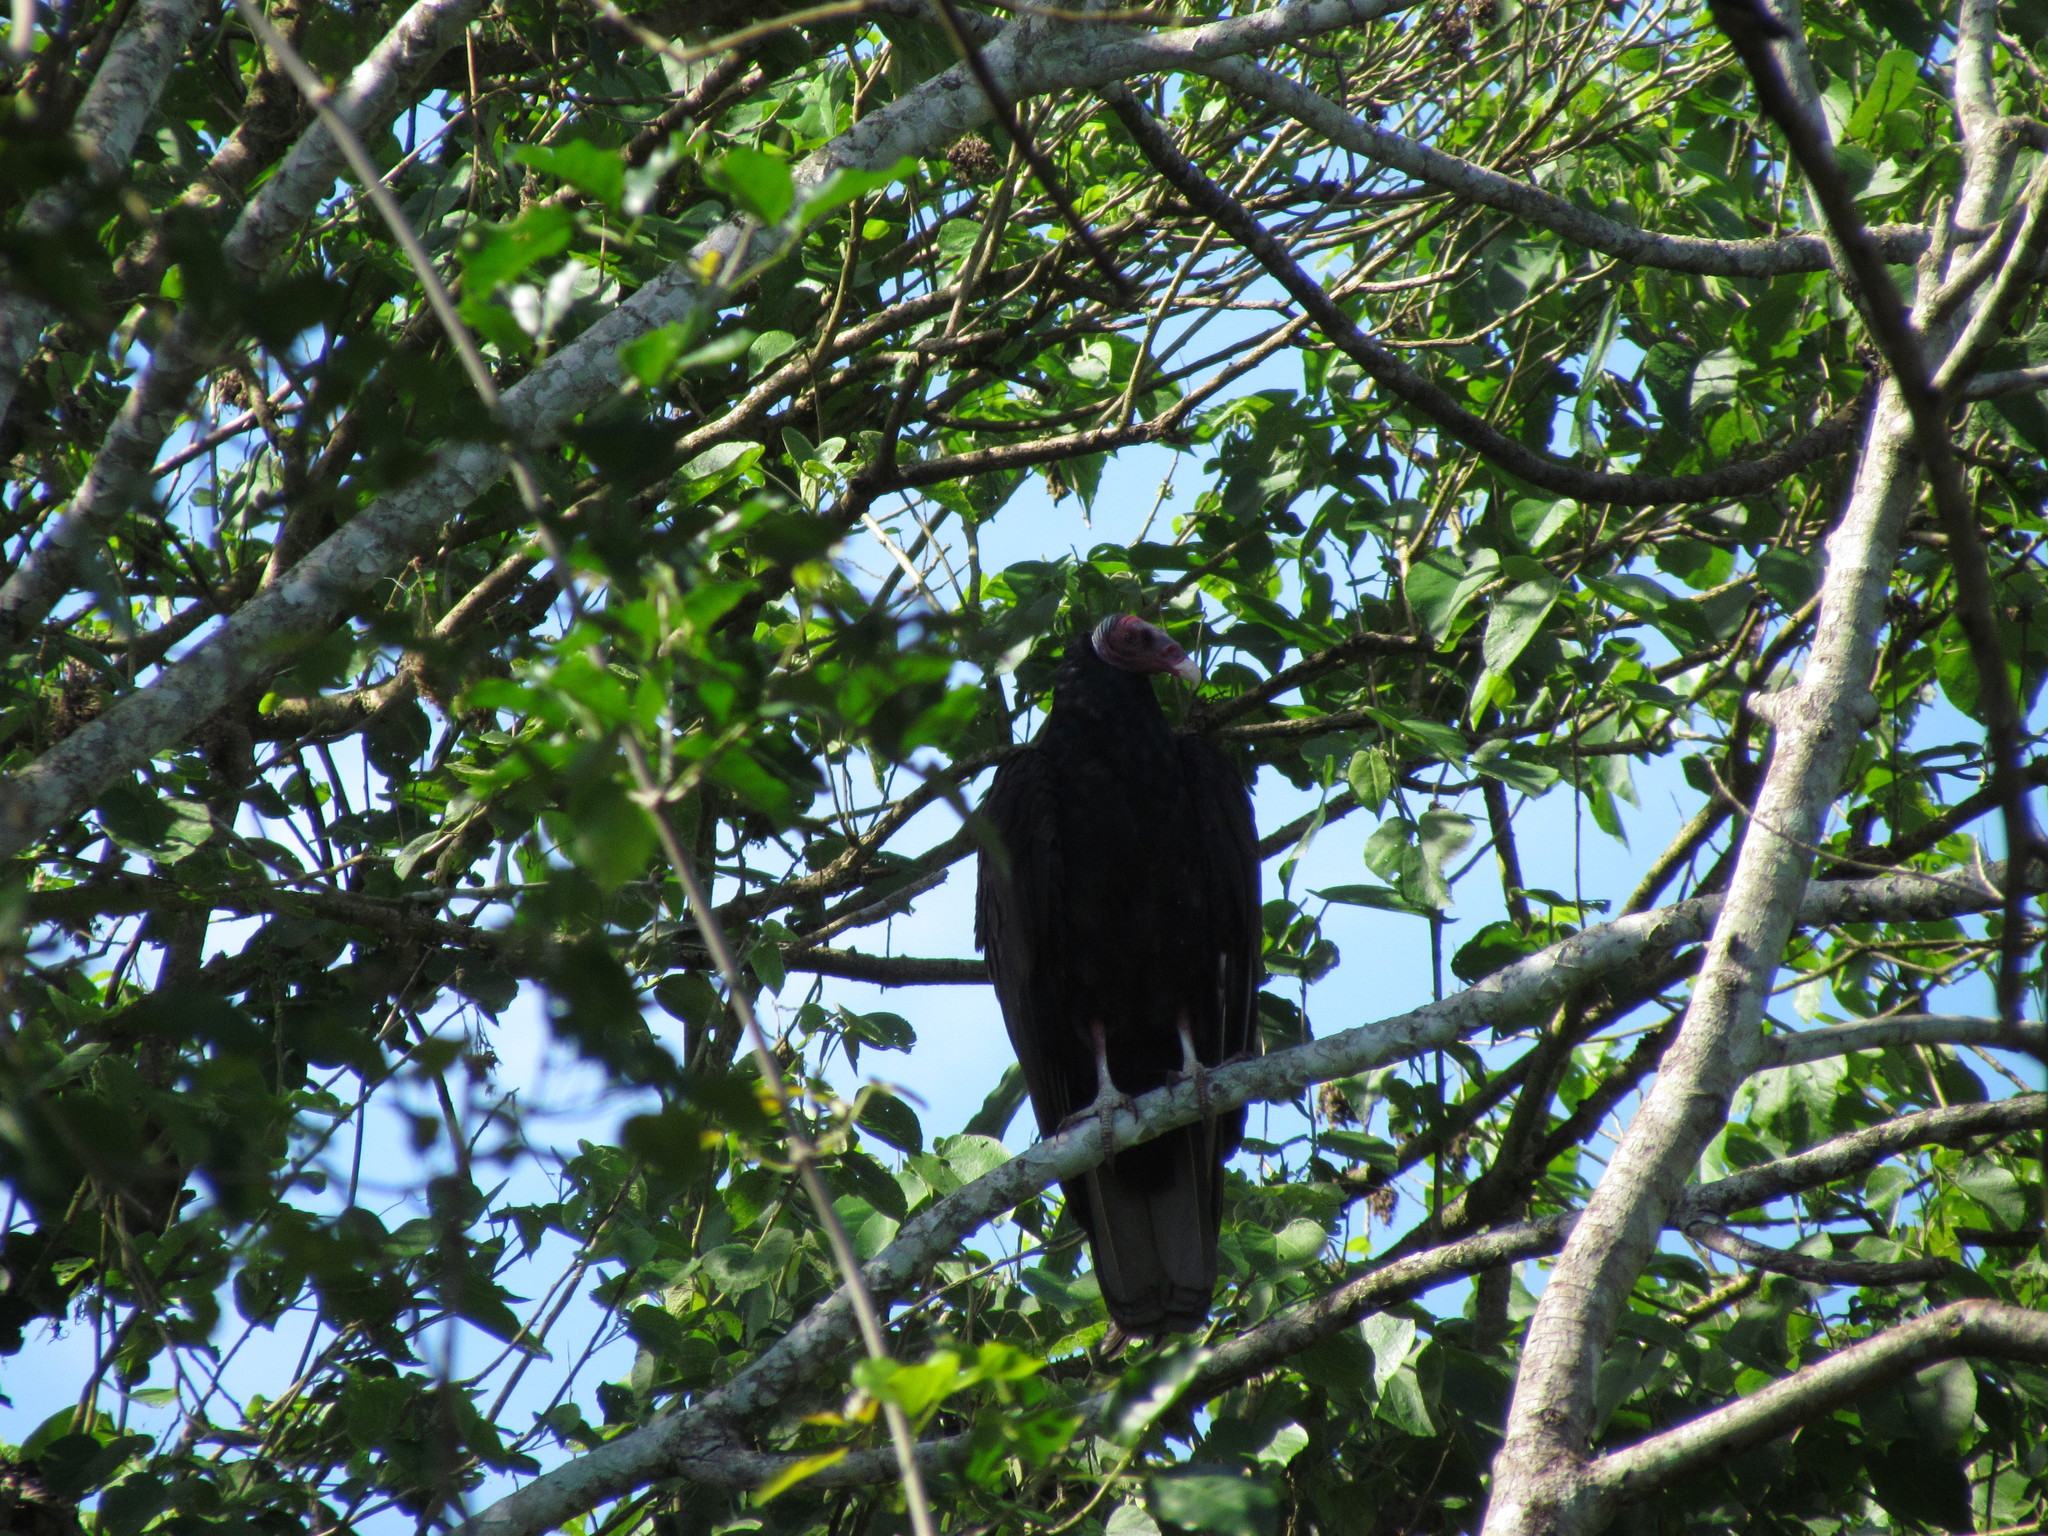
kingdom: Animalia
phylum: Chordata
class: Aves
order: Accipitriformes
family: Cathartidae
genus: Cathartes
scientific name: Cathartes aura
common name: Turkey vulture
